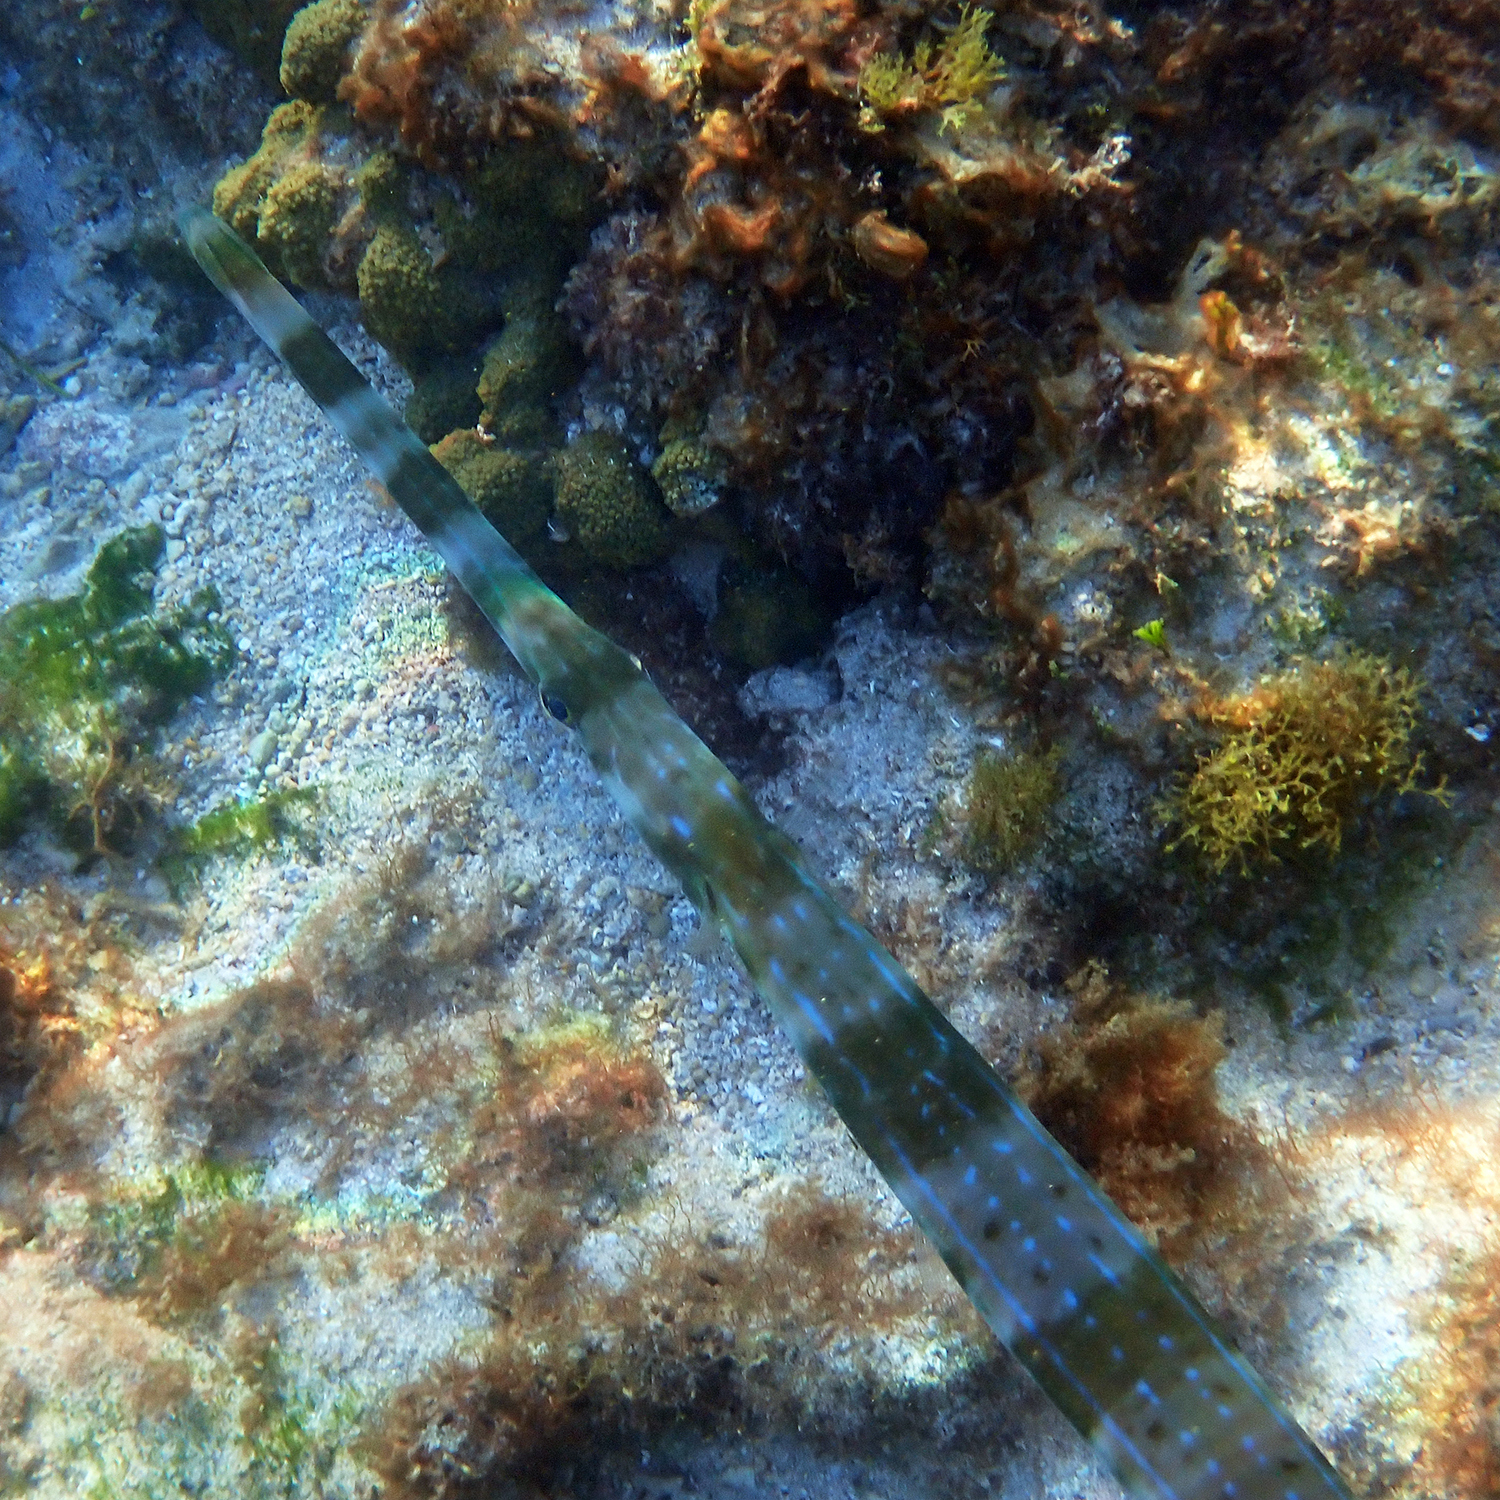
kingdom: Animalia
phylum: Chordata
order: Syngnathiformes
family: Fistulariidae
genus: Fistularia
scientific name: Fistularia commersonii
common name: Bluespotted cornetfish
